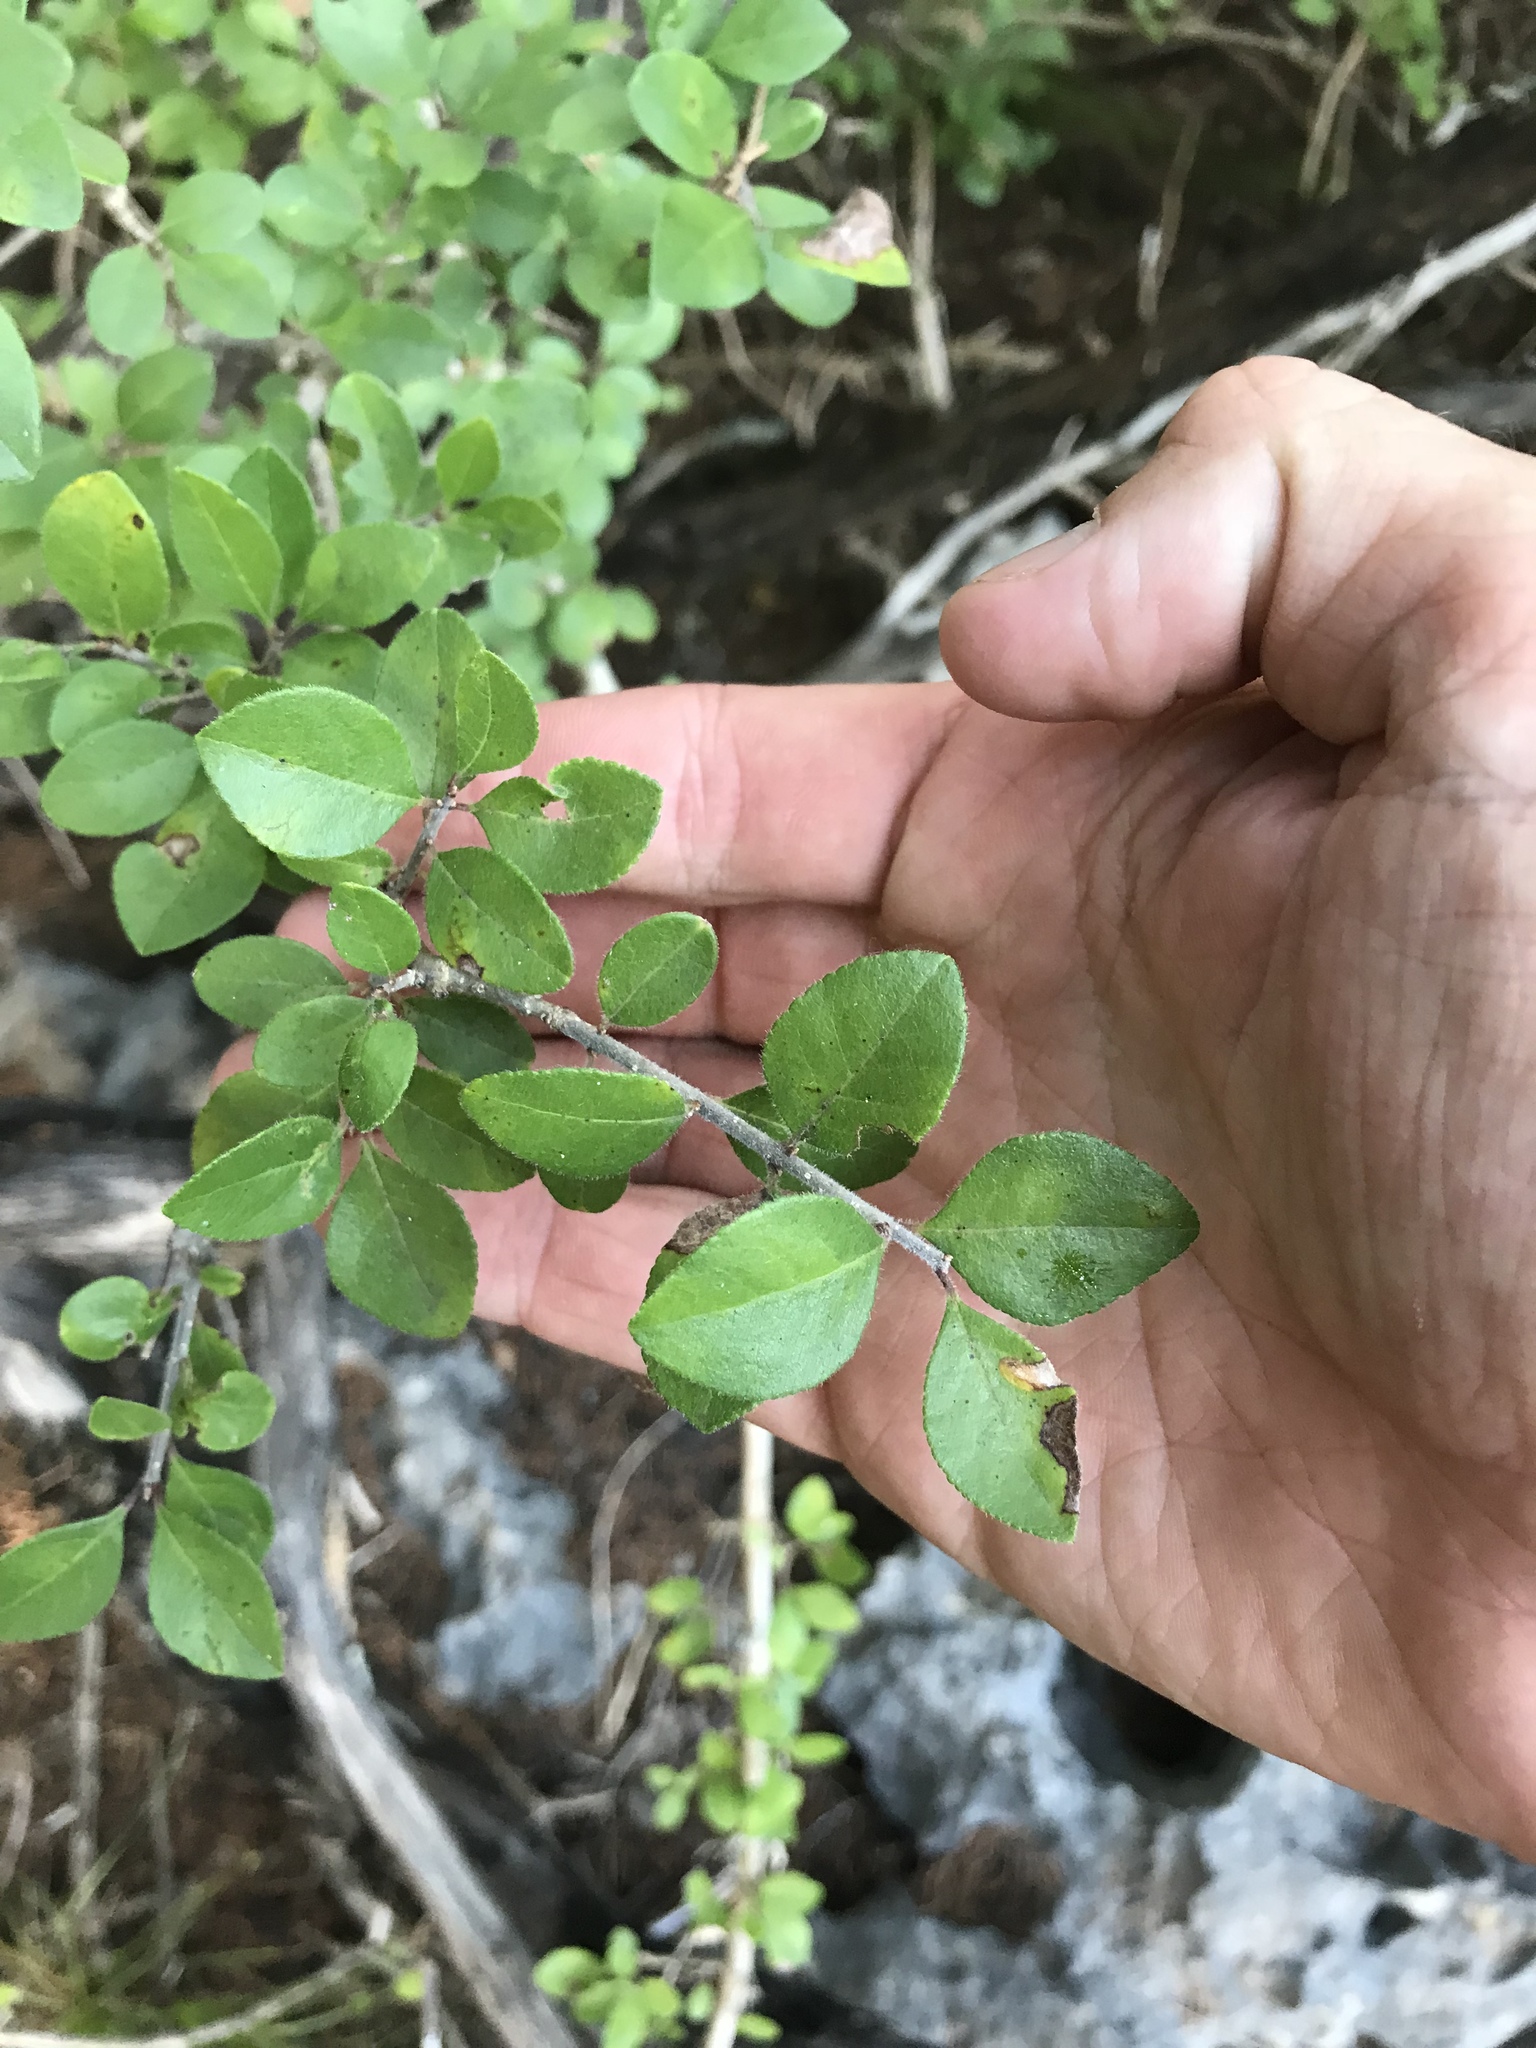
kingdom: Plantae
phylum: Tracheophyta
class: Magnoliopsida
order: Lamiales
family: Oleaceae
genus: Forestiera
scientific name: Forestiera pubescens
